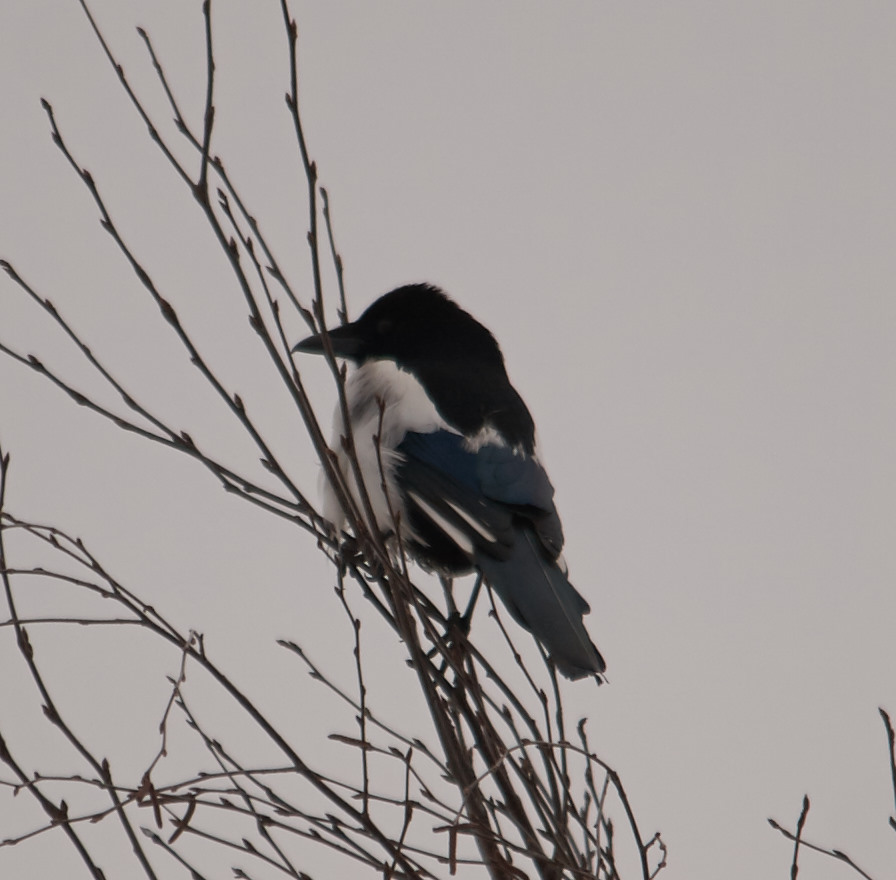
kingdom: Animalia
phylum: Chordata
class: Aves
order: Passeriformes
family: Corvidae
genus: Pica
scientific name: Pica pica
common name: Eurasian magpie
